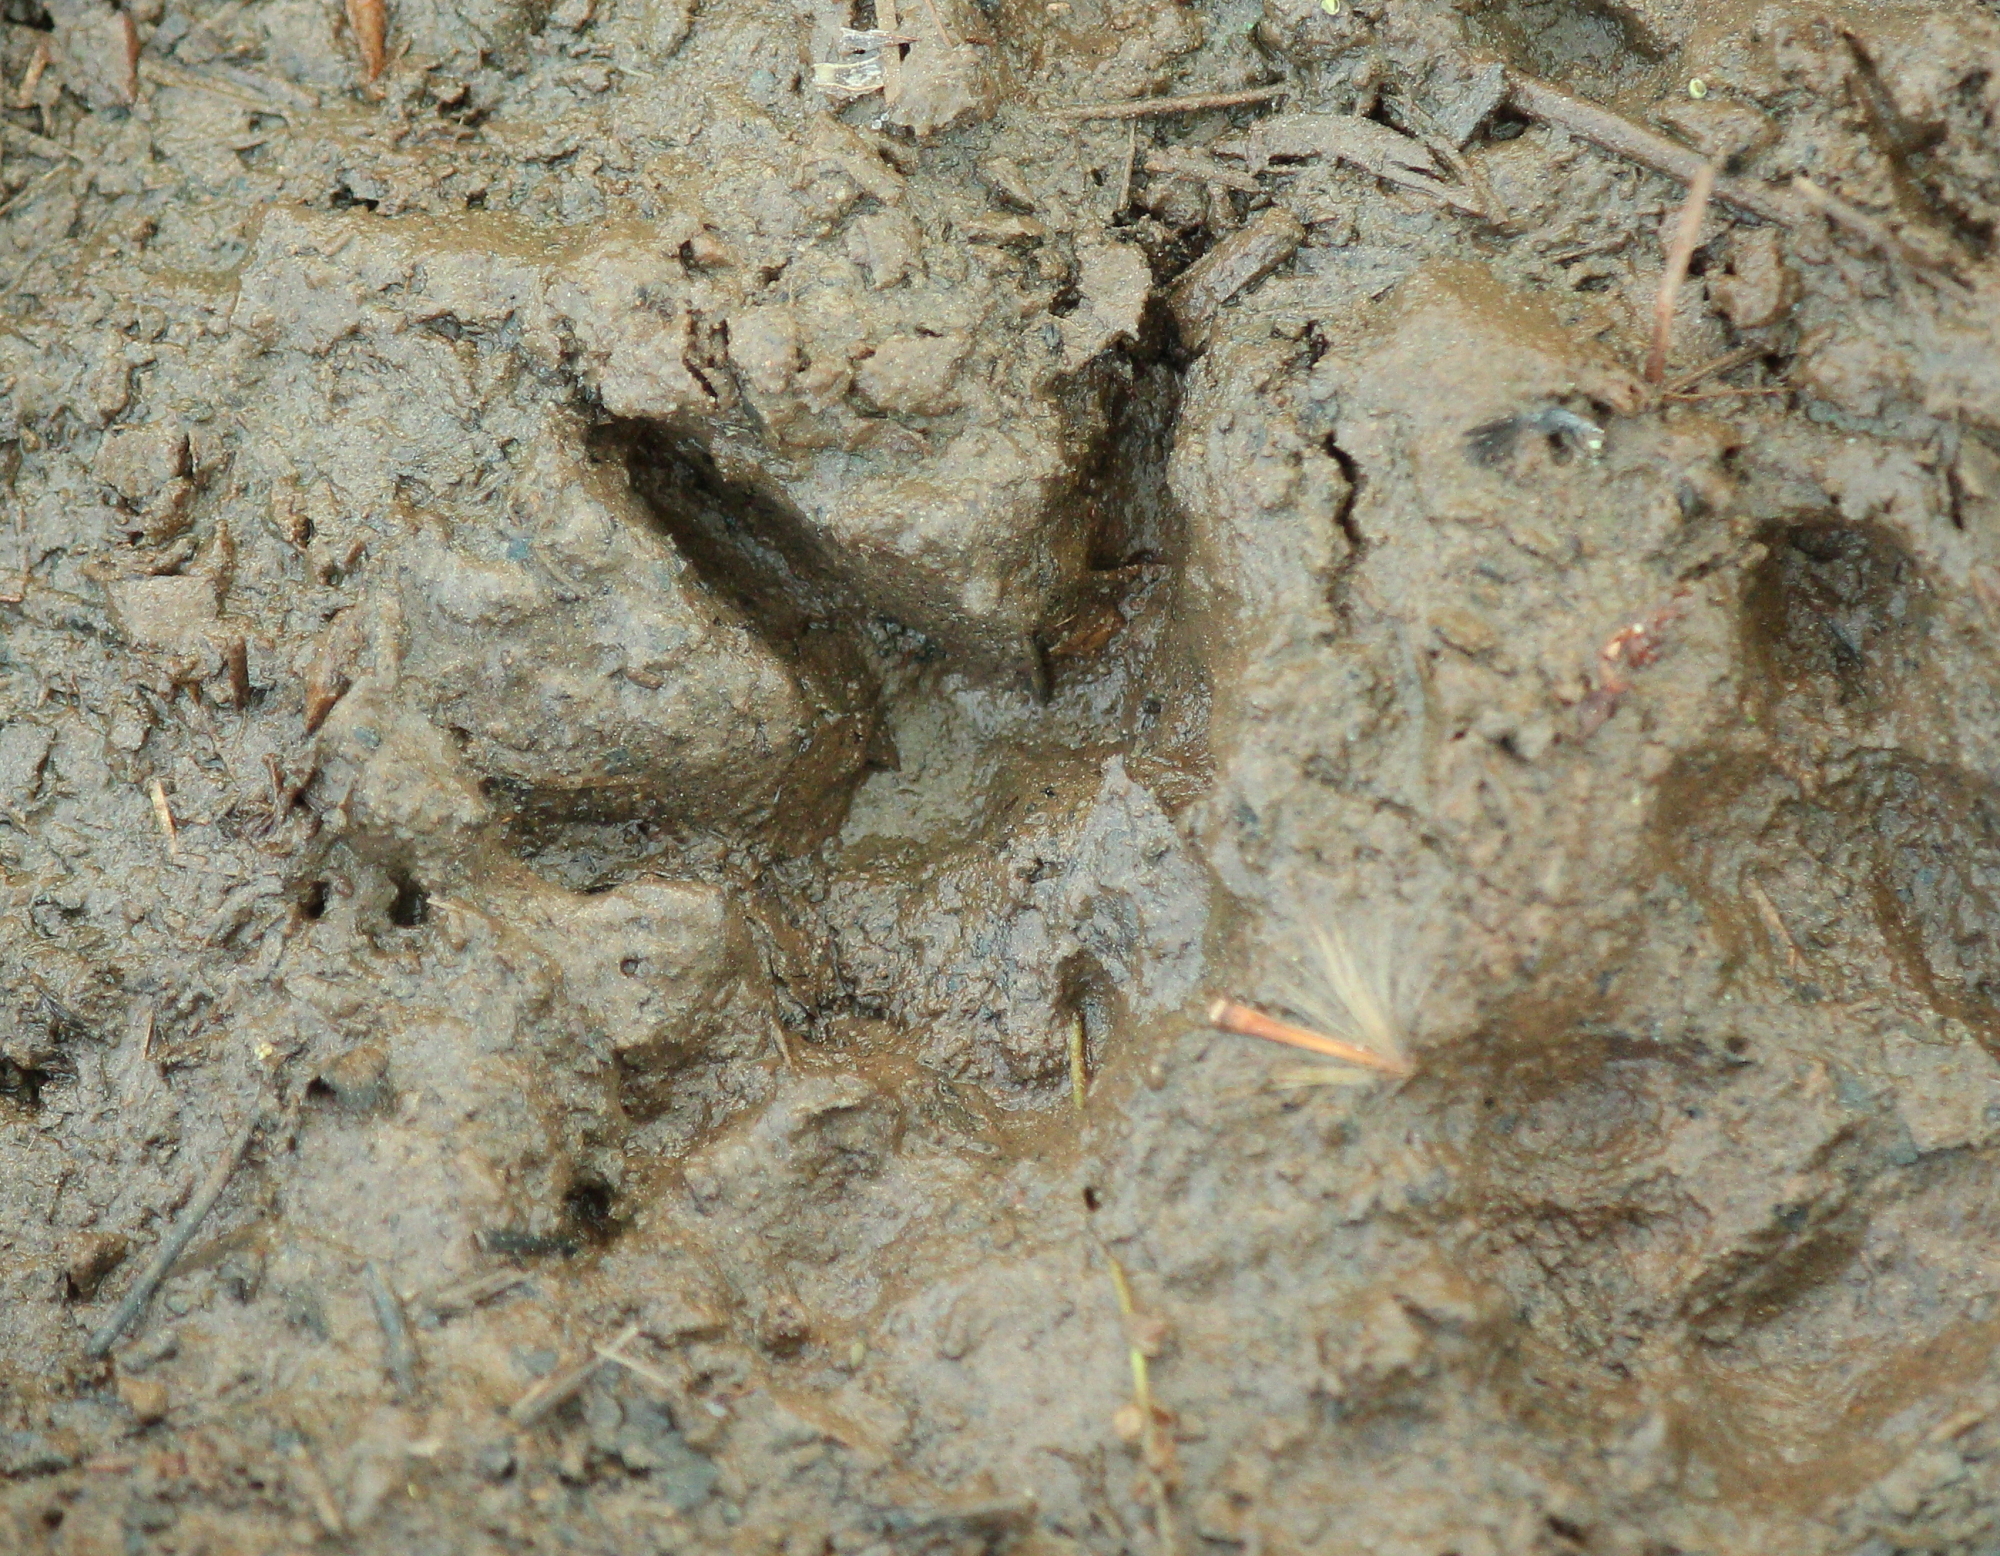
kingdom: Animalia
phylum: Chordata
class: Mammalia
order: Didelphimorphia
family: Didelphidae
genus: Didelphis
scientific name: Didelphis virginiana
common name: Virginia opossum
